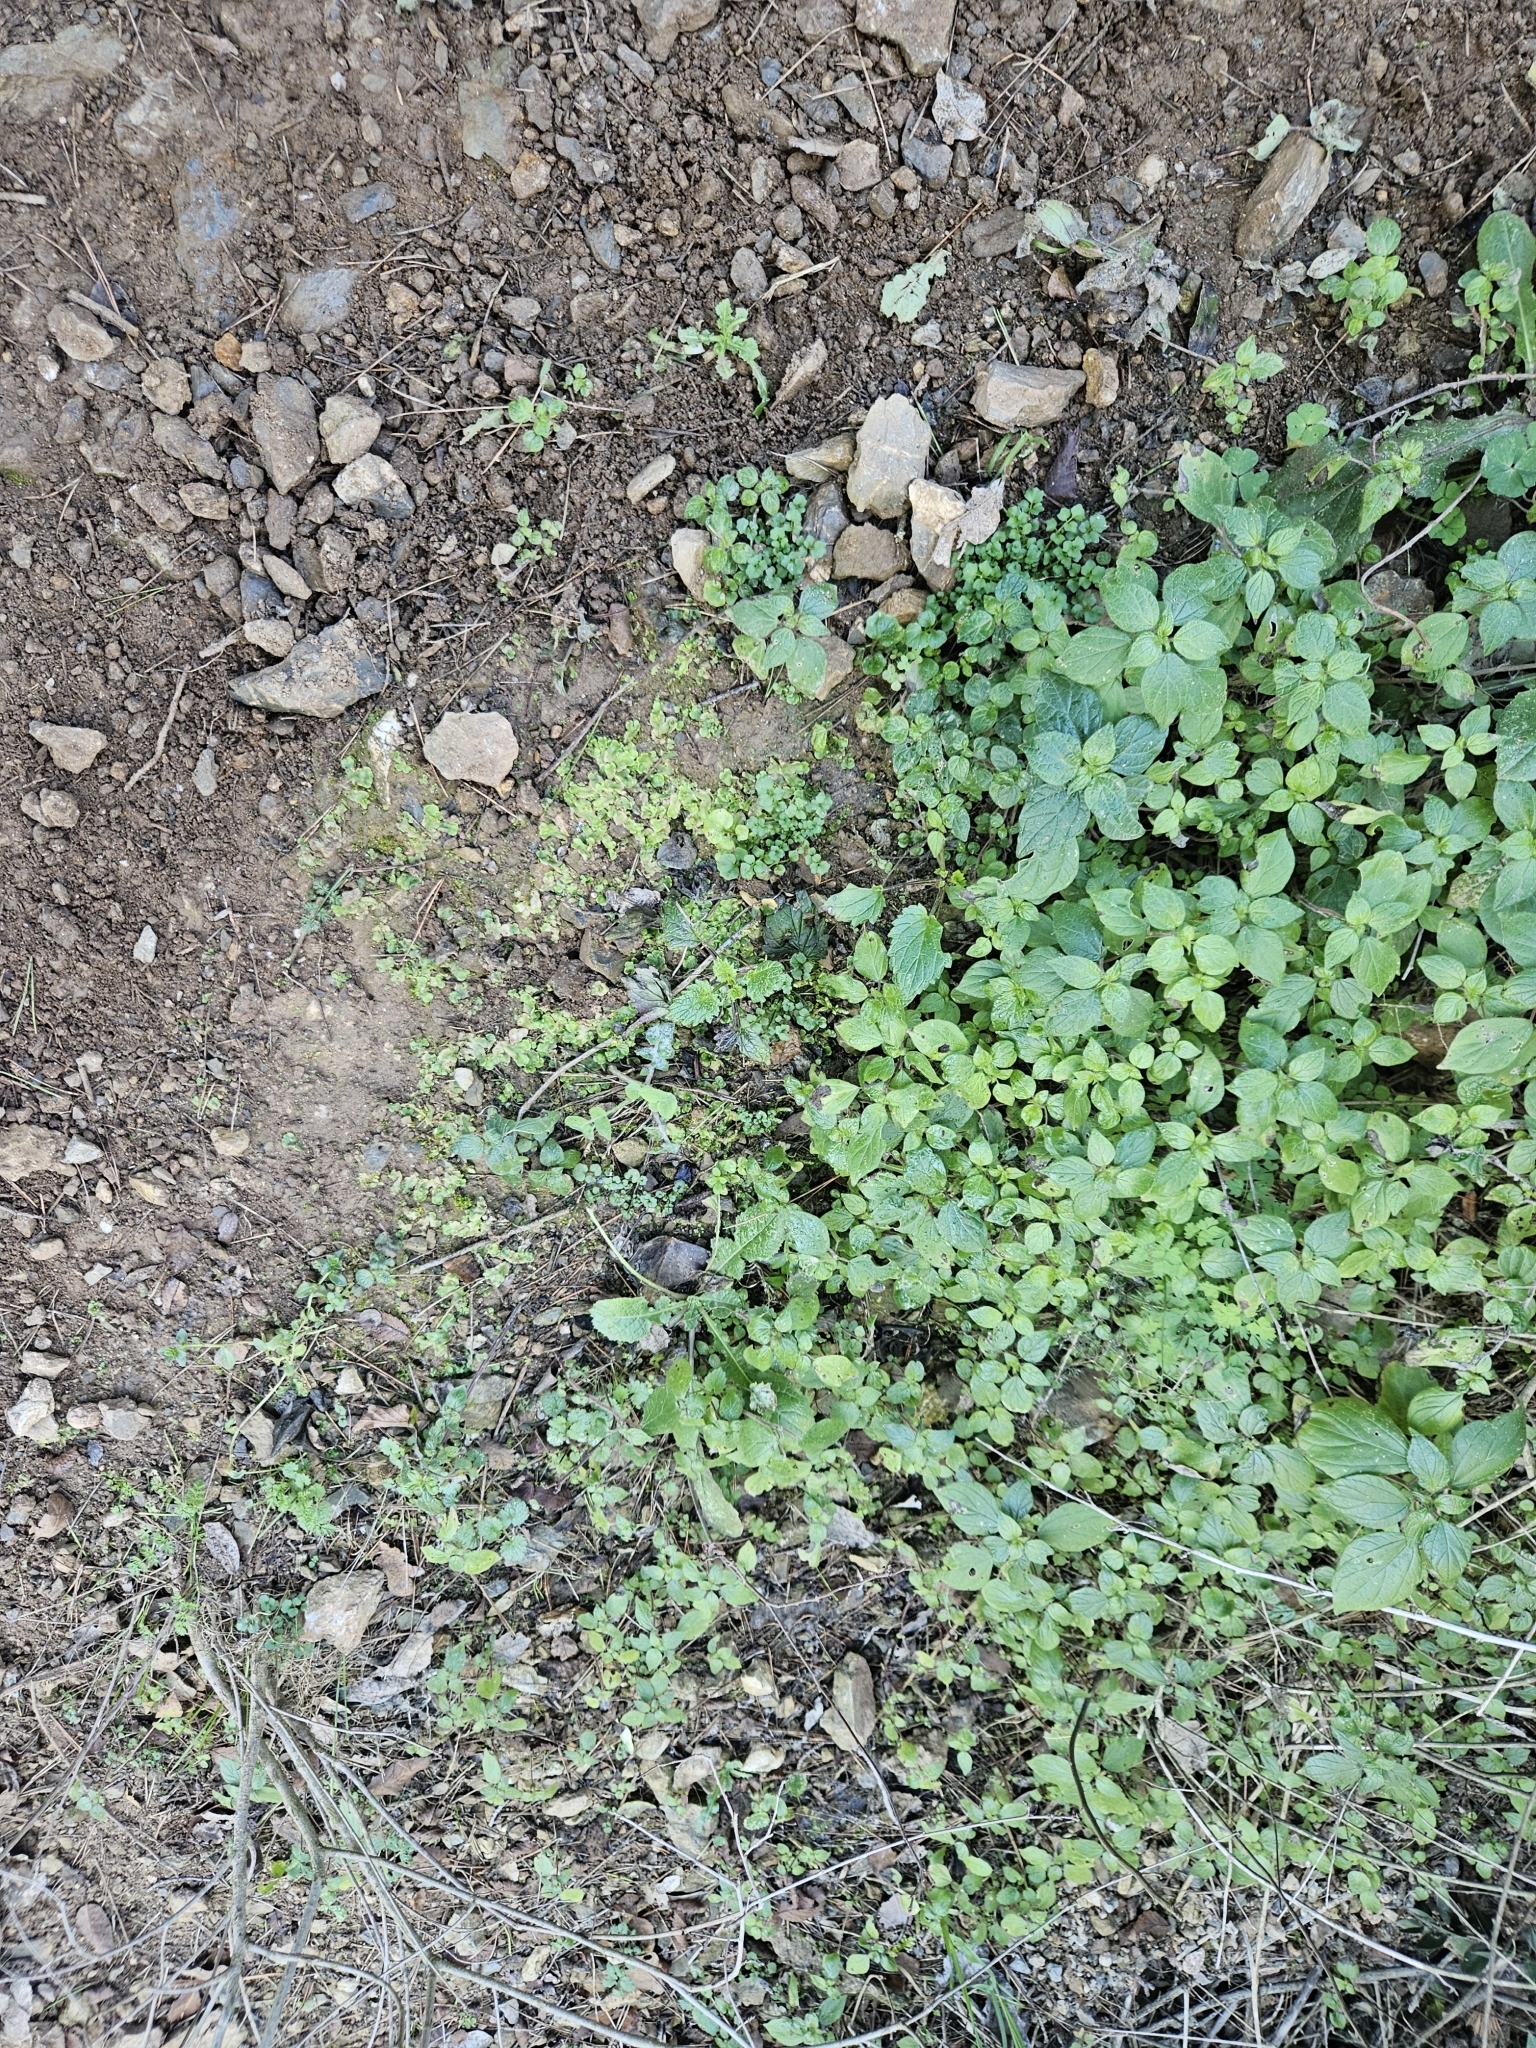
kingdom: Plantae
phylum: Marchantiophyta
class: Marchantiopsida
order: Lunulariales
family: Lunulariaceae
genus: Lunularia
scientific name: Lunularia cruciata
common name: Crescent-cup liverwort
